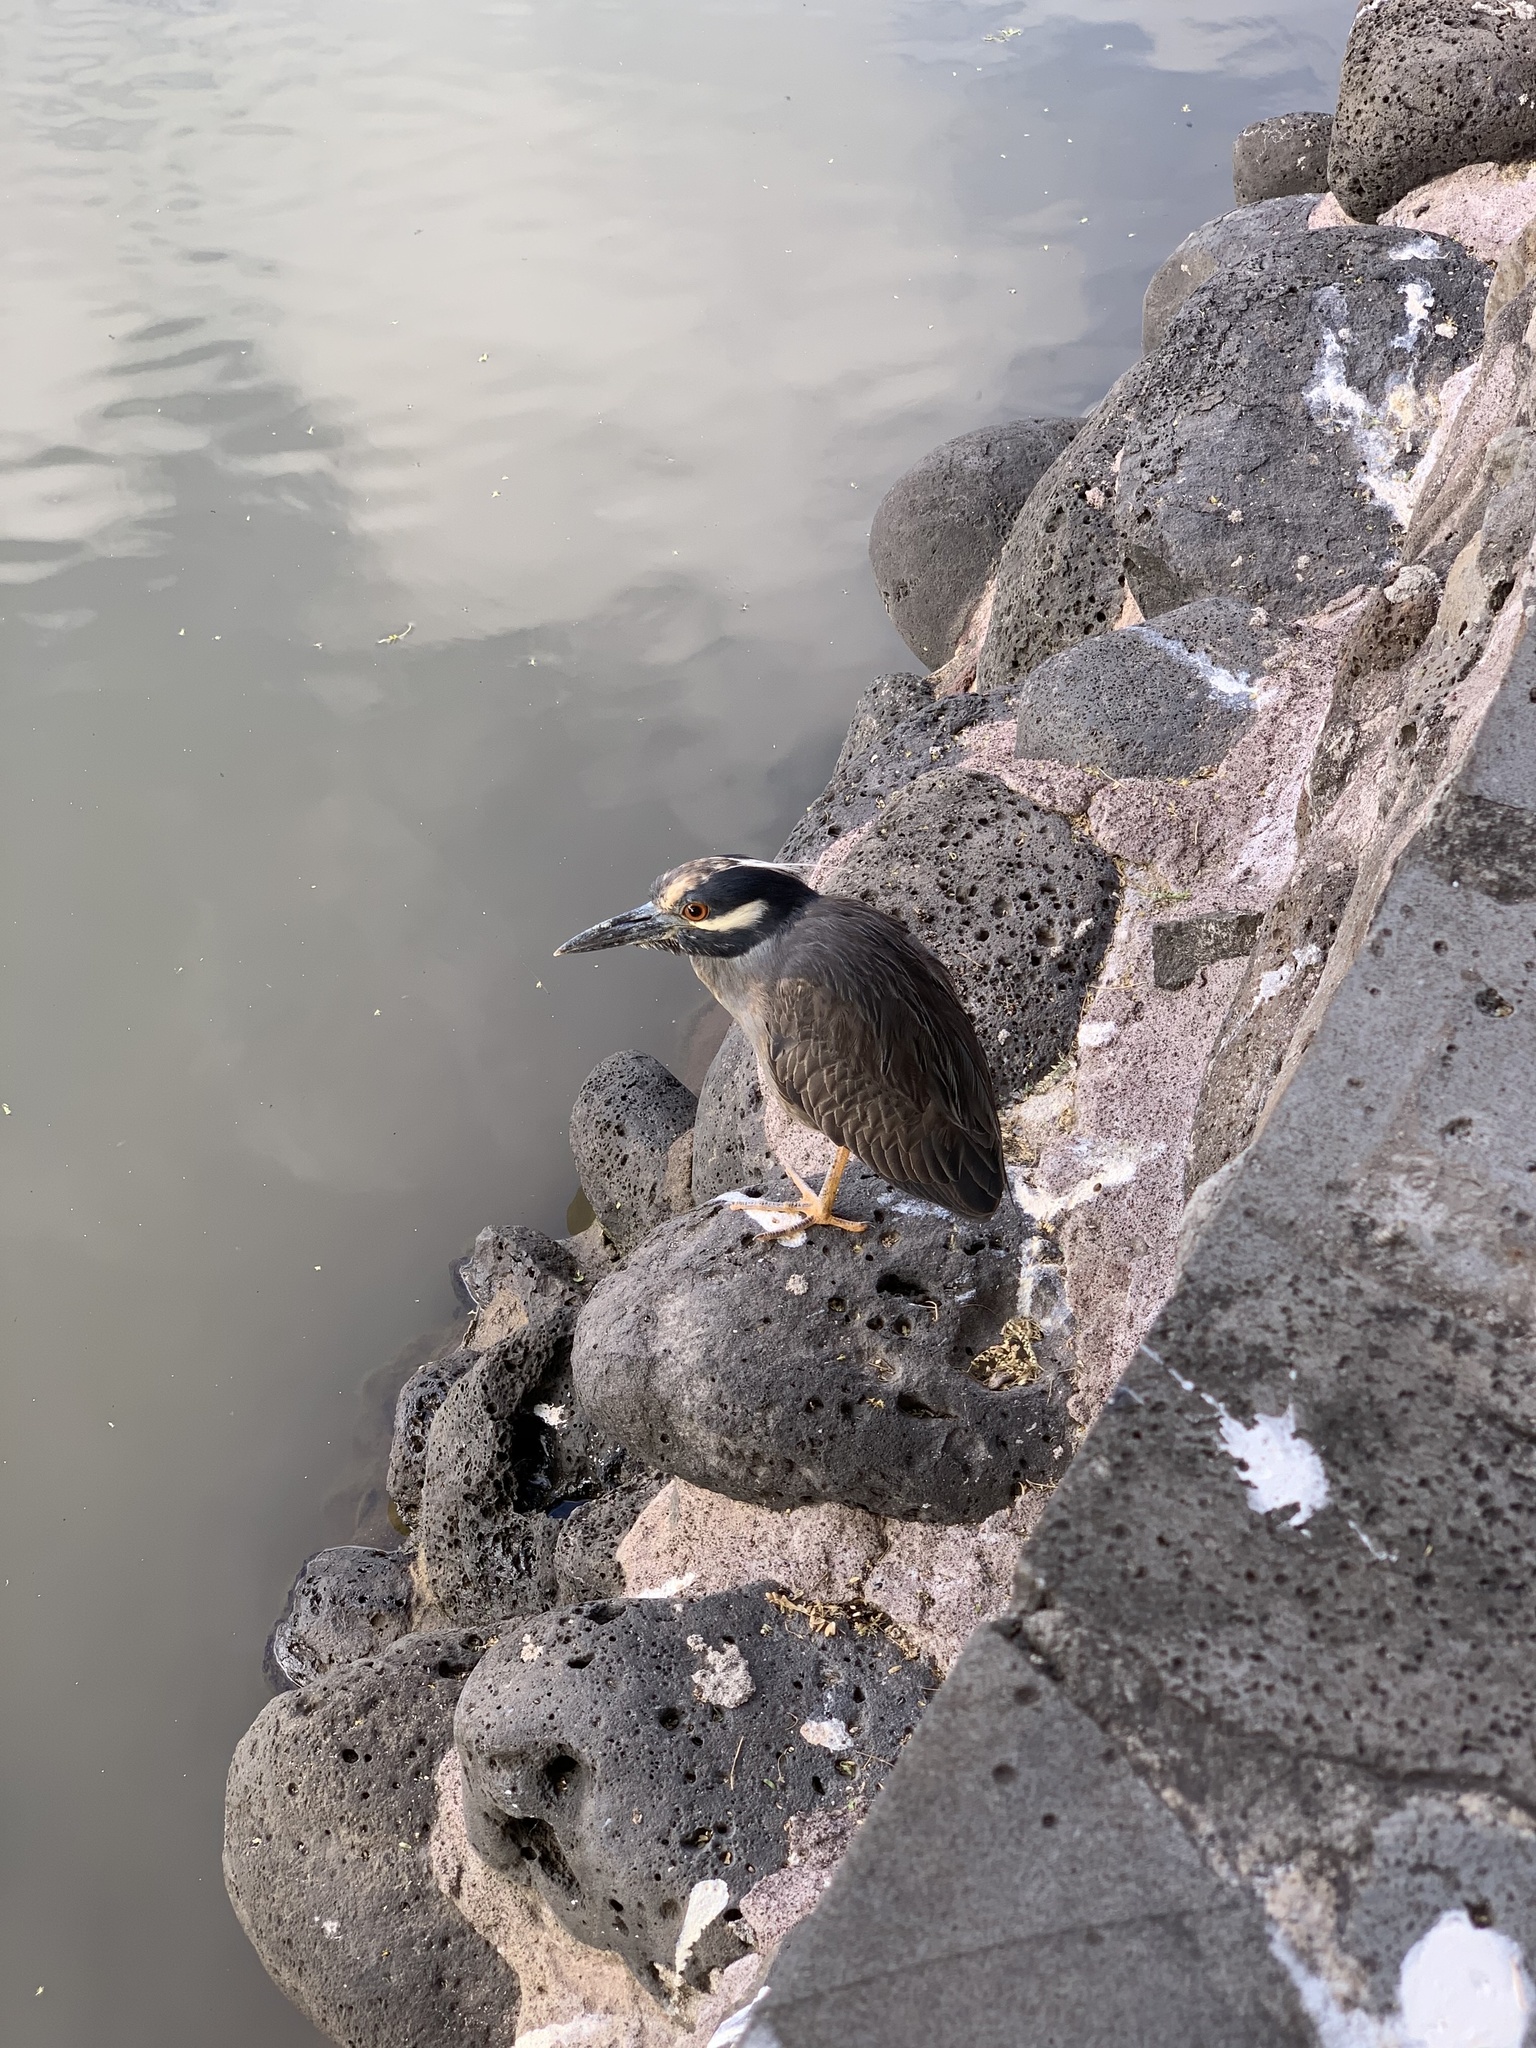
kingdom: Animalia
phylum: Chordata
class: Aves
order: Pelecaniformes
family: Ardeidae
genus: Nyctanassa
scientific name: Nyctanassa violacea
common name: Yellow-crowned night heron
